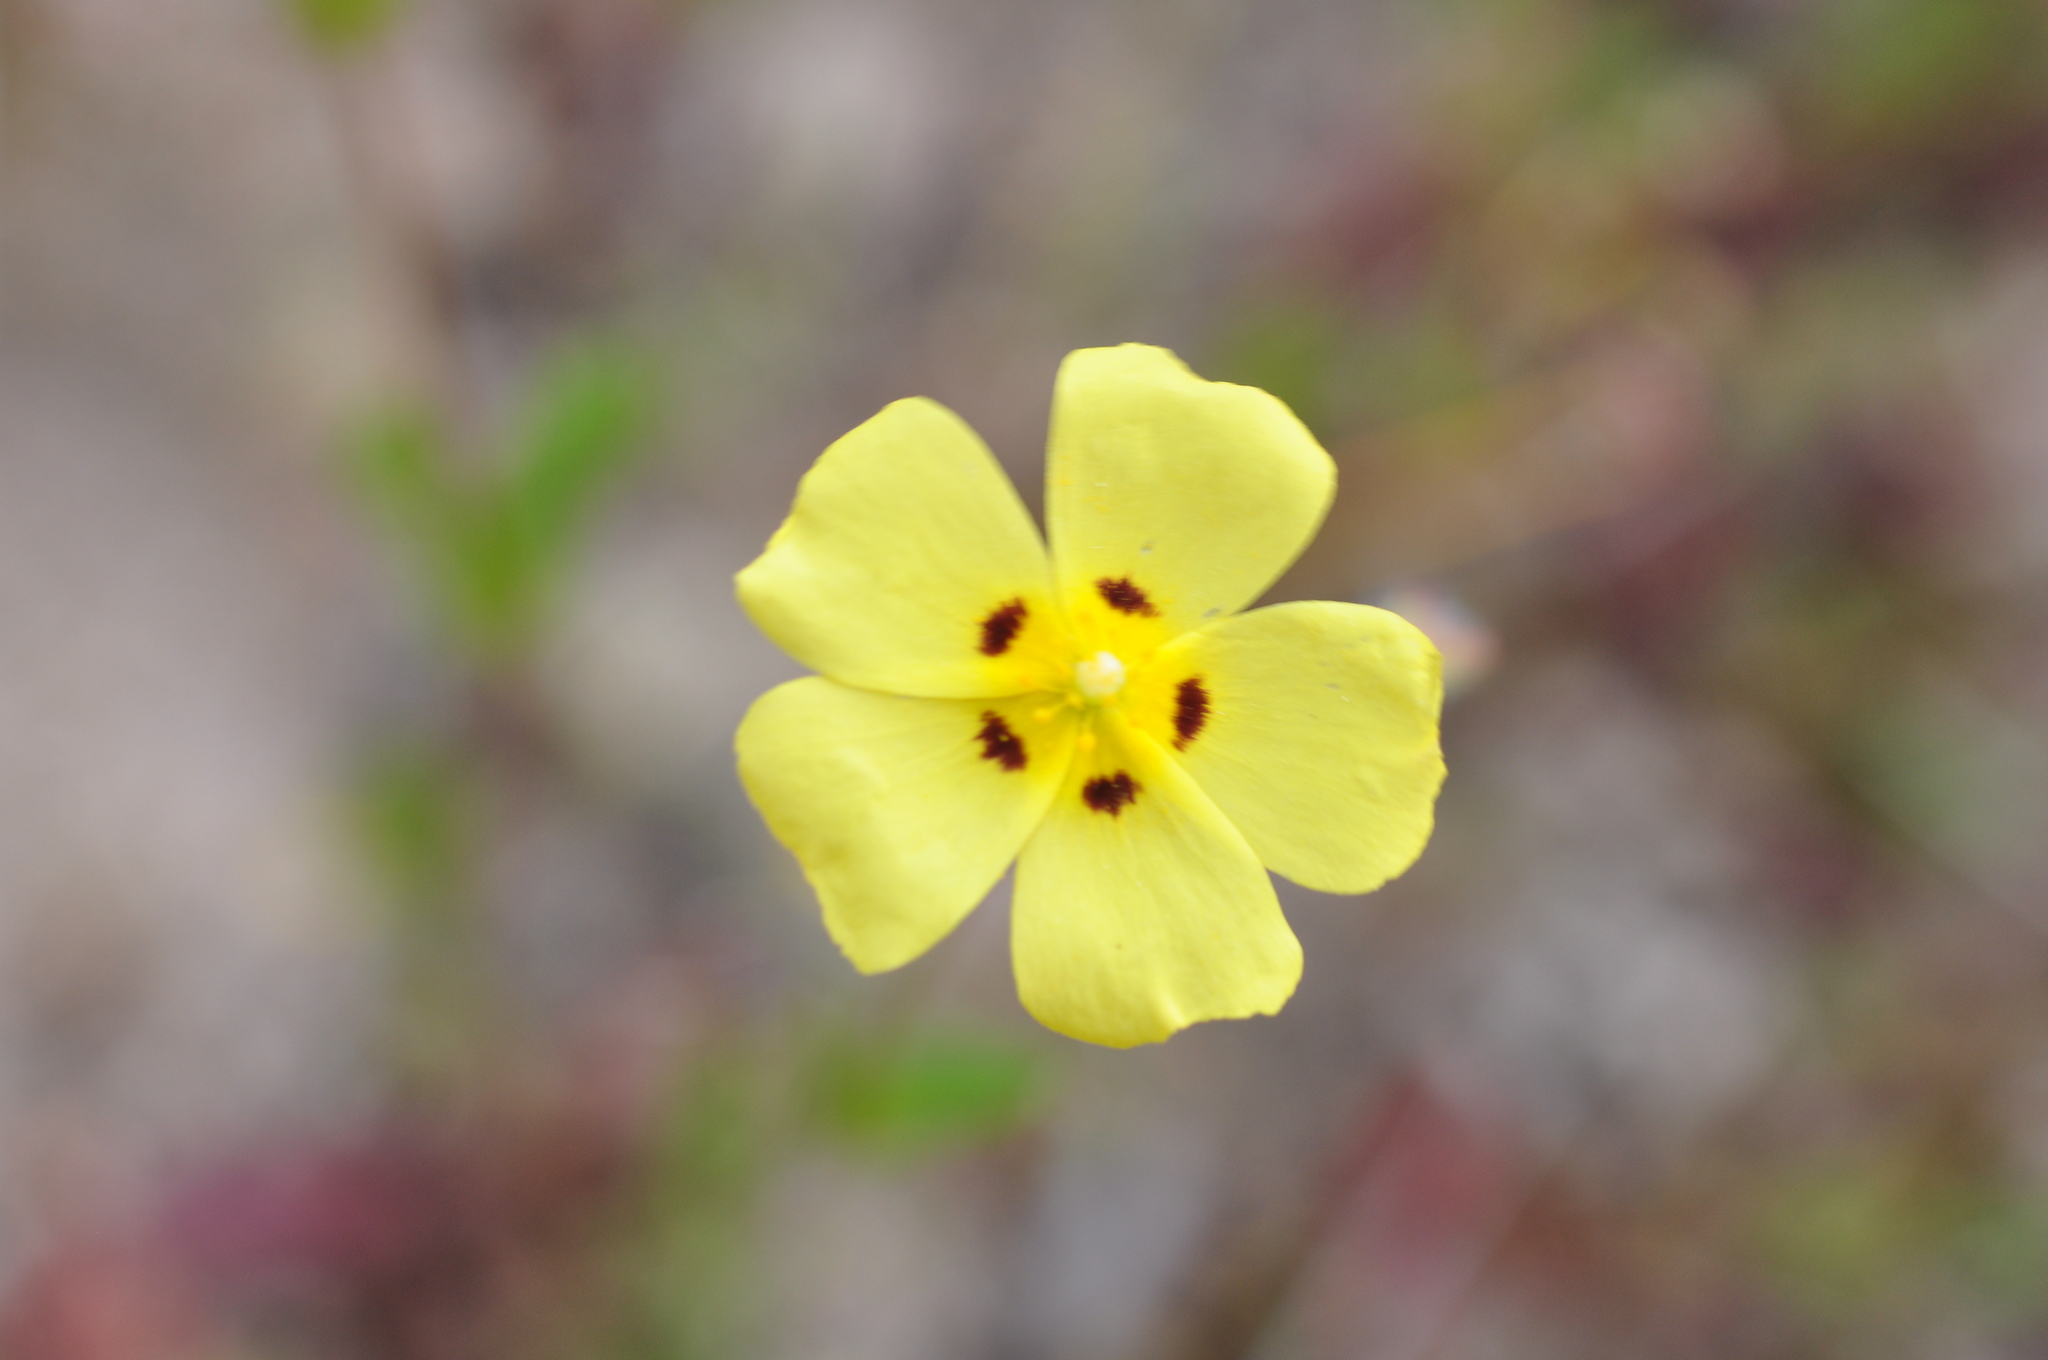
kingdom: Plantae
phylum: Tracheophyta
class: Magnoliopsida
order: Malvales
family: Cistaceae
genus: Tuberaria
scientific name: Tuberaria guttata
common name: Spotted rock-rose
